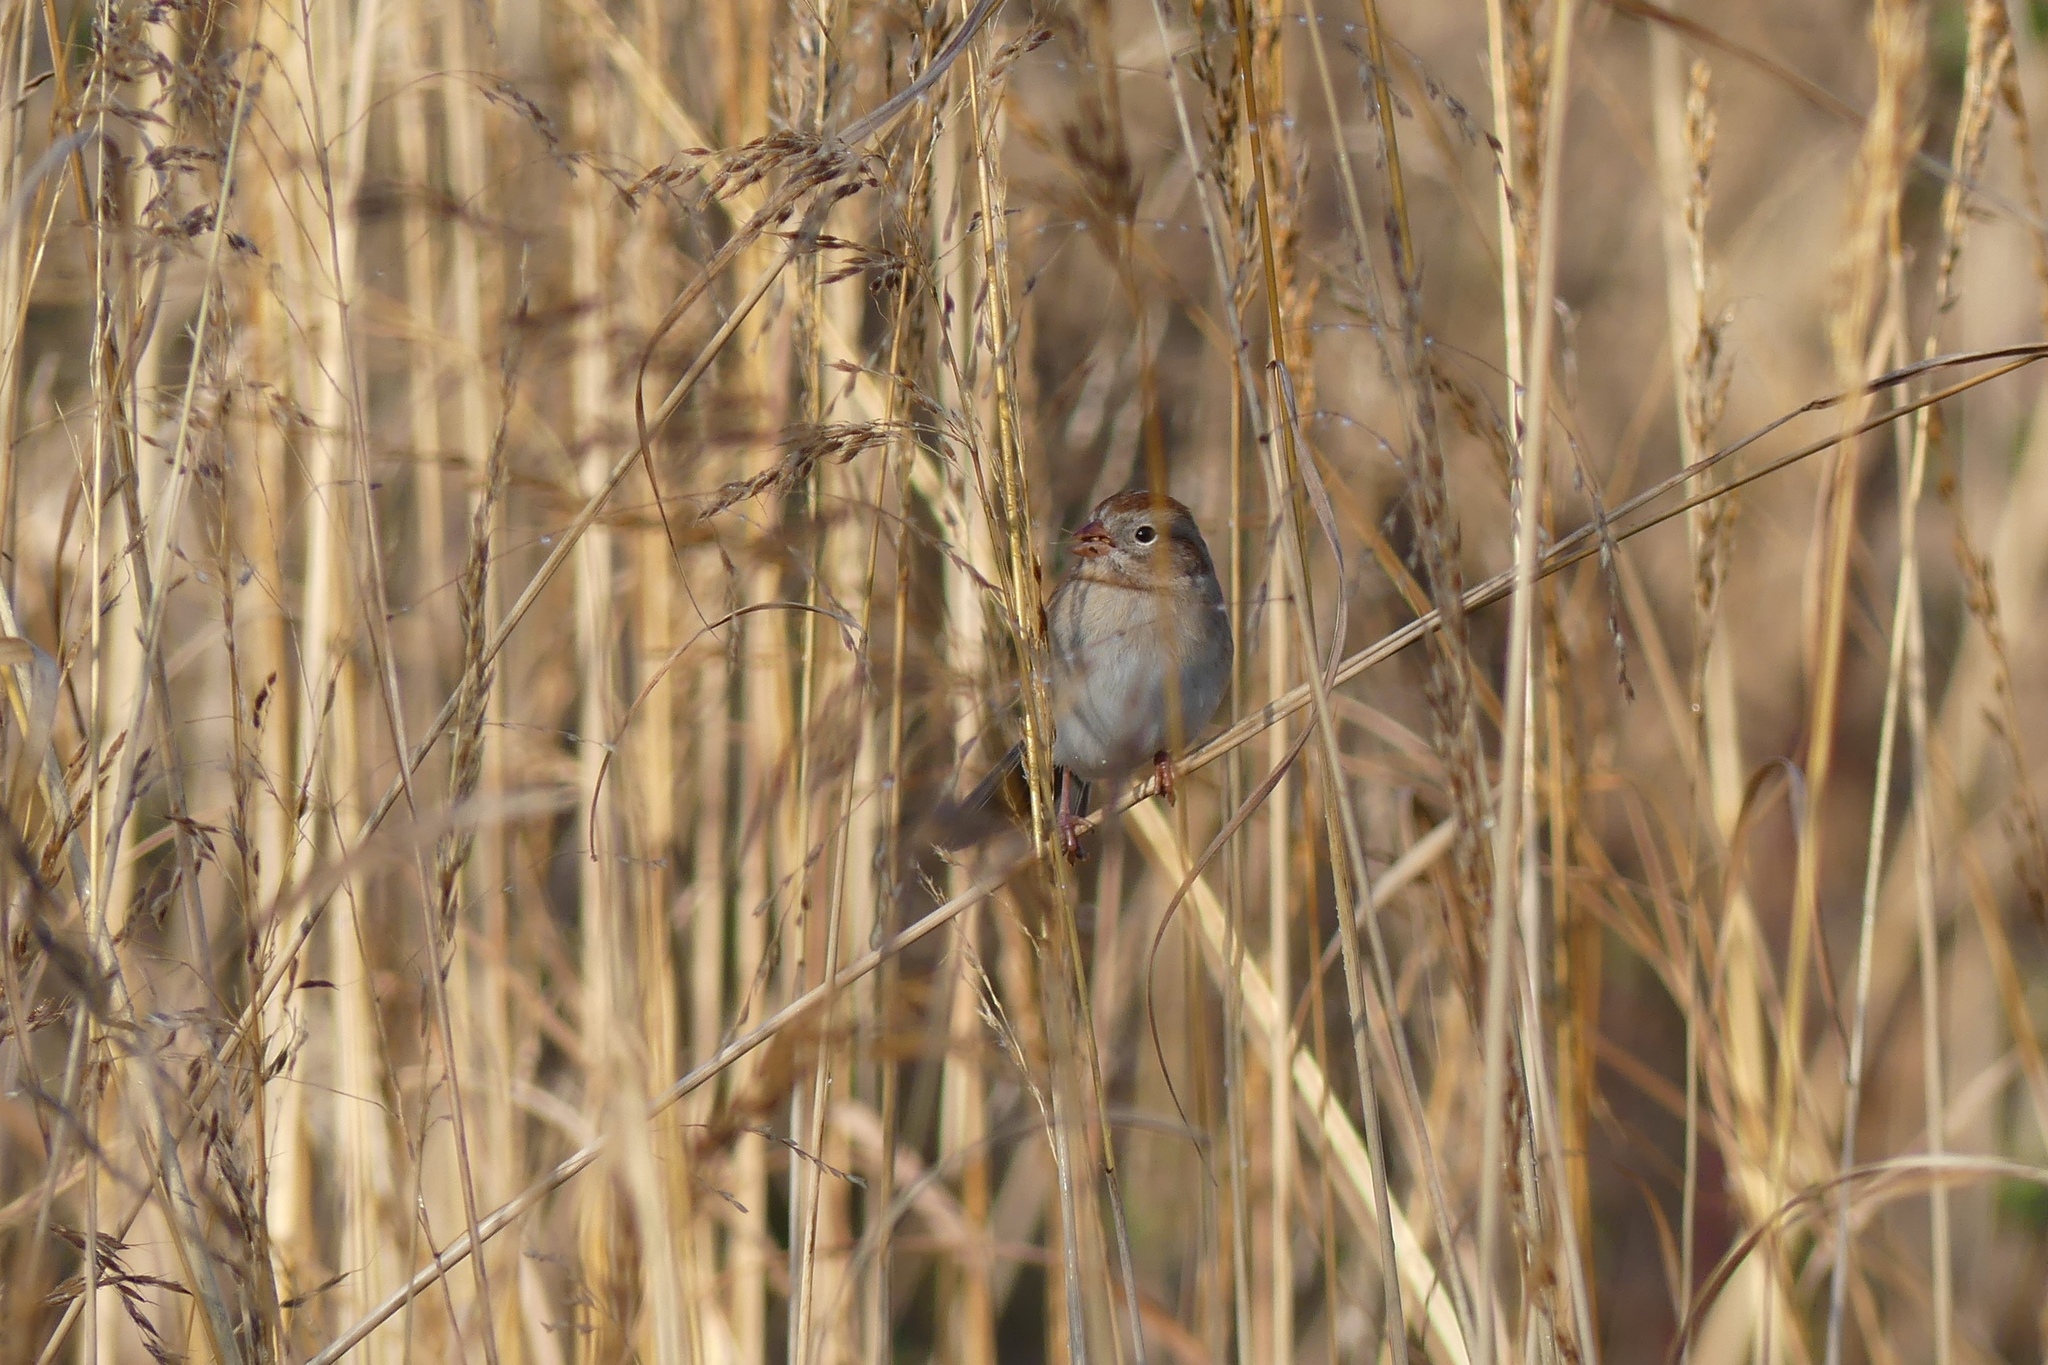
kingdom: Animalia
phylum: Chordata
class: Aves
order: Passeriformes
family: Passerellidae
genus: Spizella
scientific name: Spizella pusilla
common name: Field sparrow
